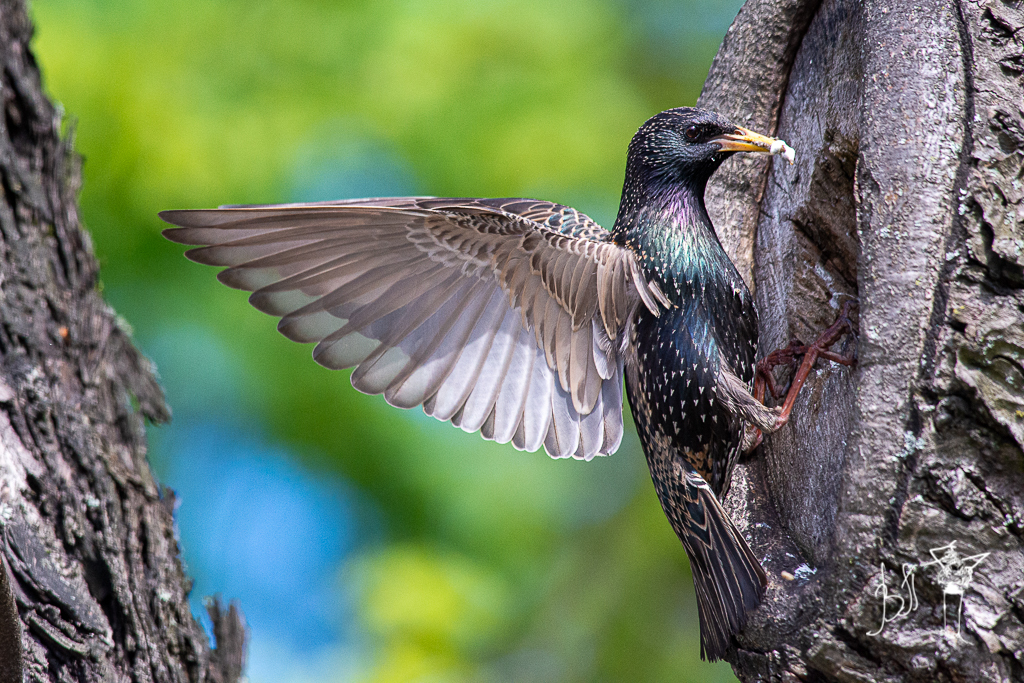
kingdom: Animalia
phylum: Chordata
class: Aves
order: Passeriformes
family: Sturnidae
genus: Sturnus
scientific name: Sturnus vulgaris
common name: Common starling
